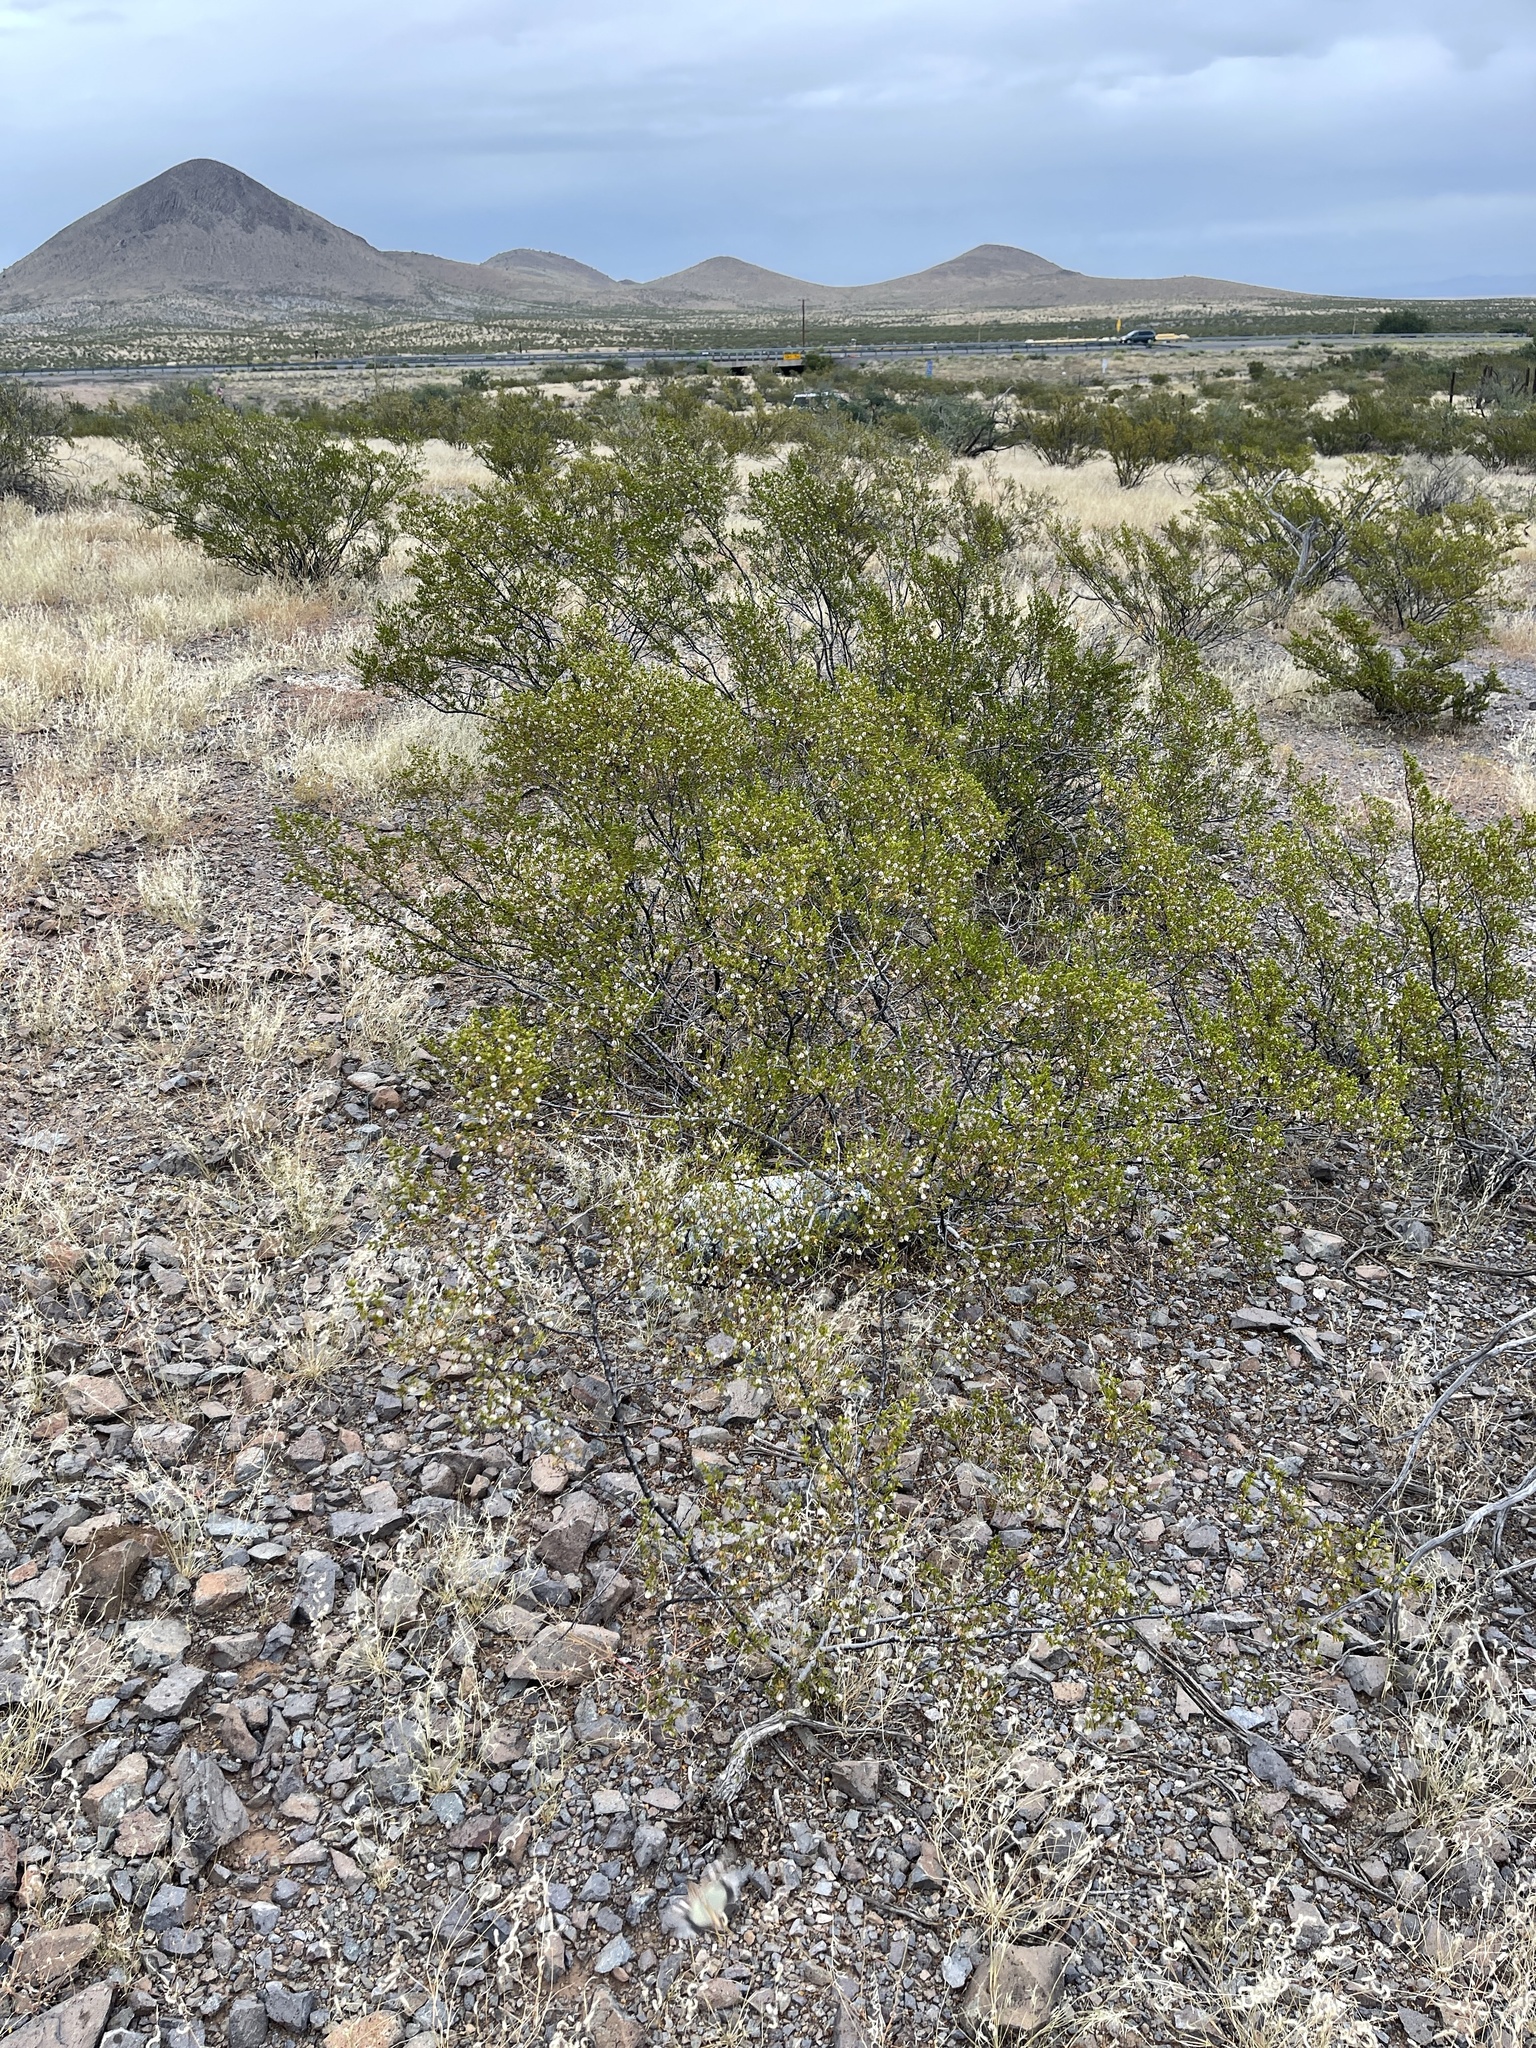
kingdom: Plantae
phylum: Tracheophyta
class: Magnoliopsida
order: Zygophyllales
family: Zygophyllaceae
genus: Larrea
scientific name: Larrea tridentata
